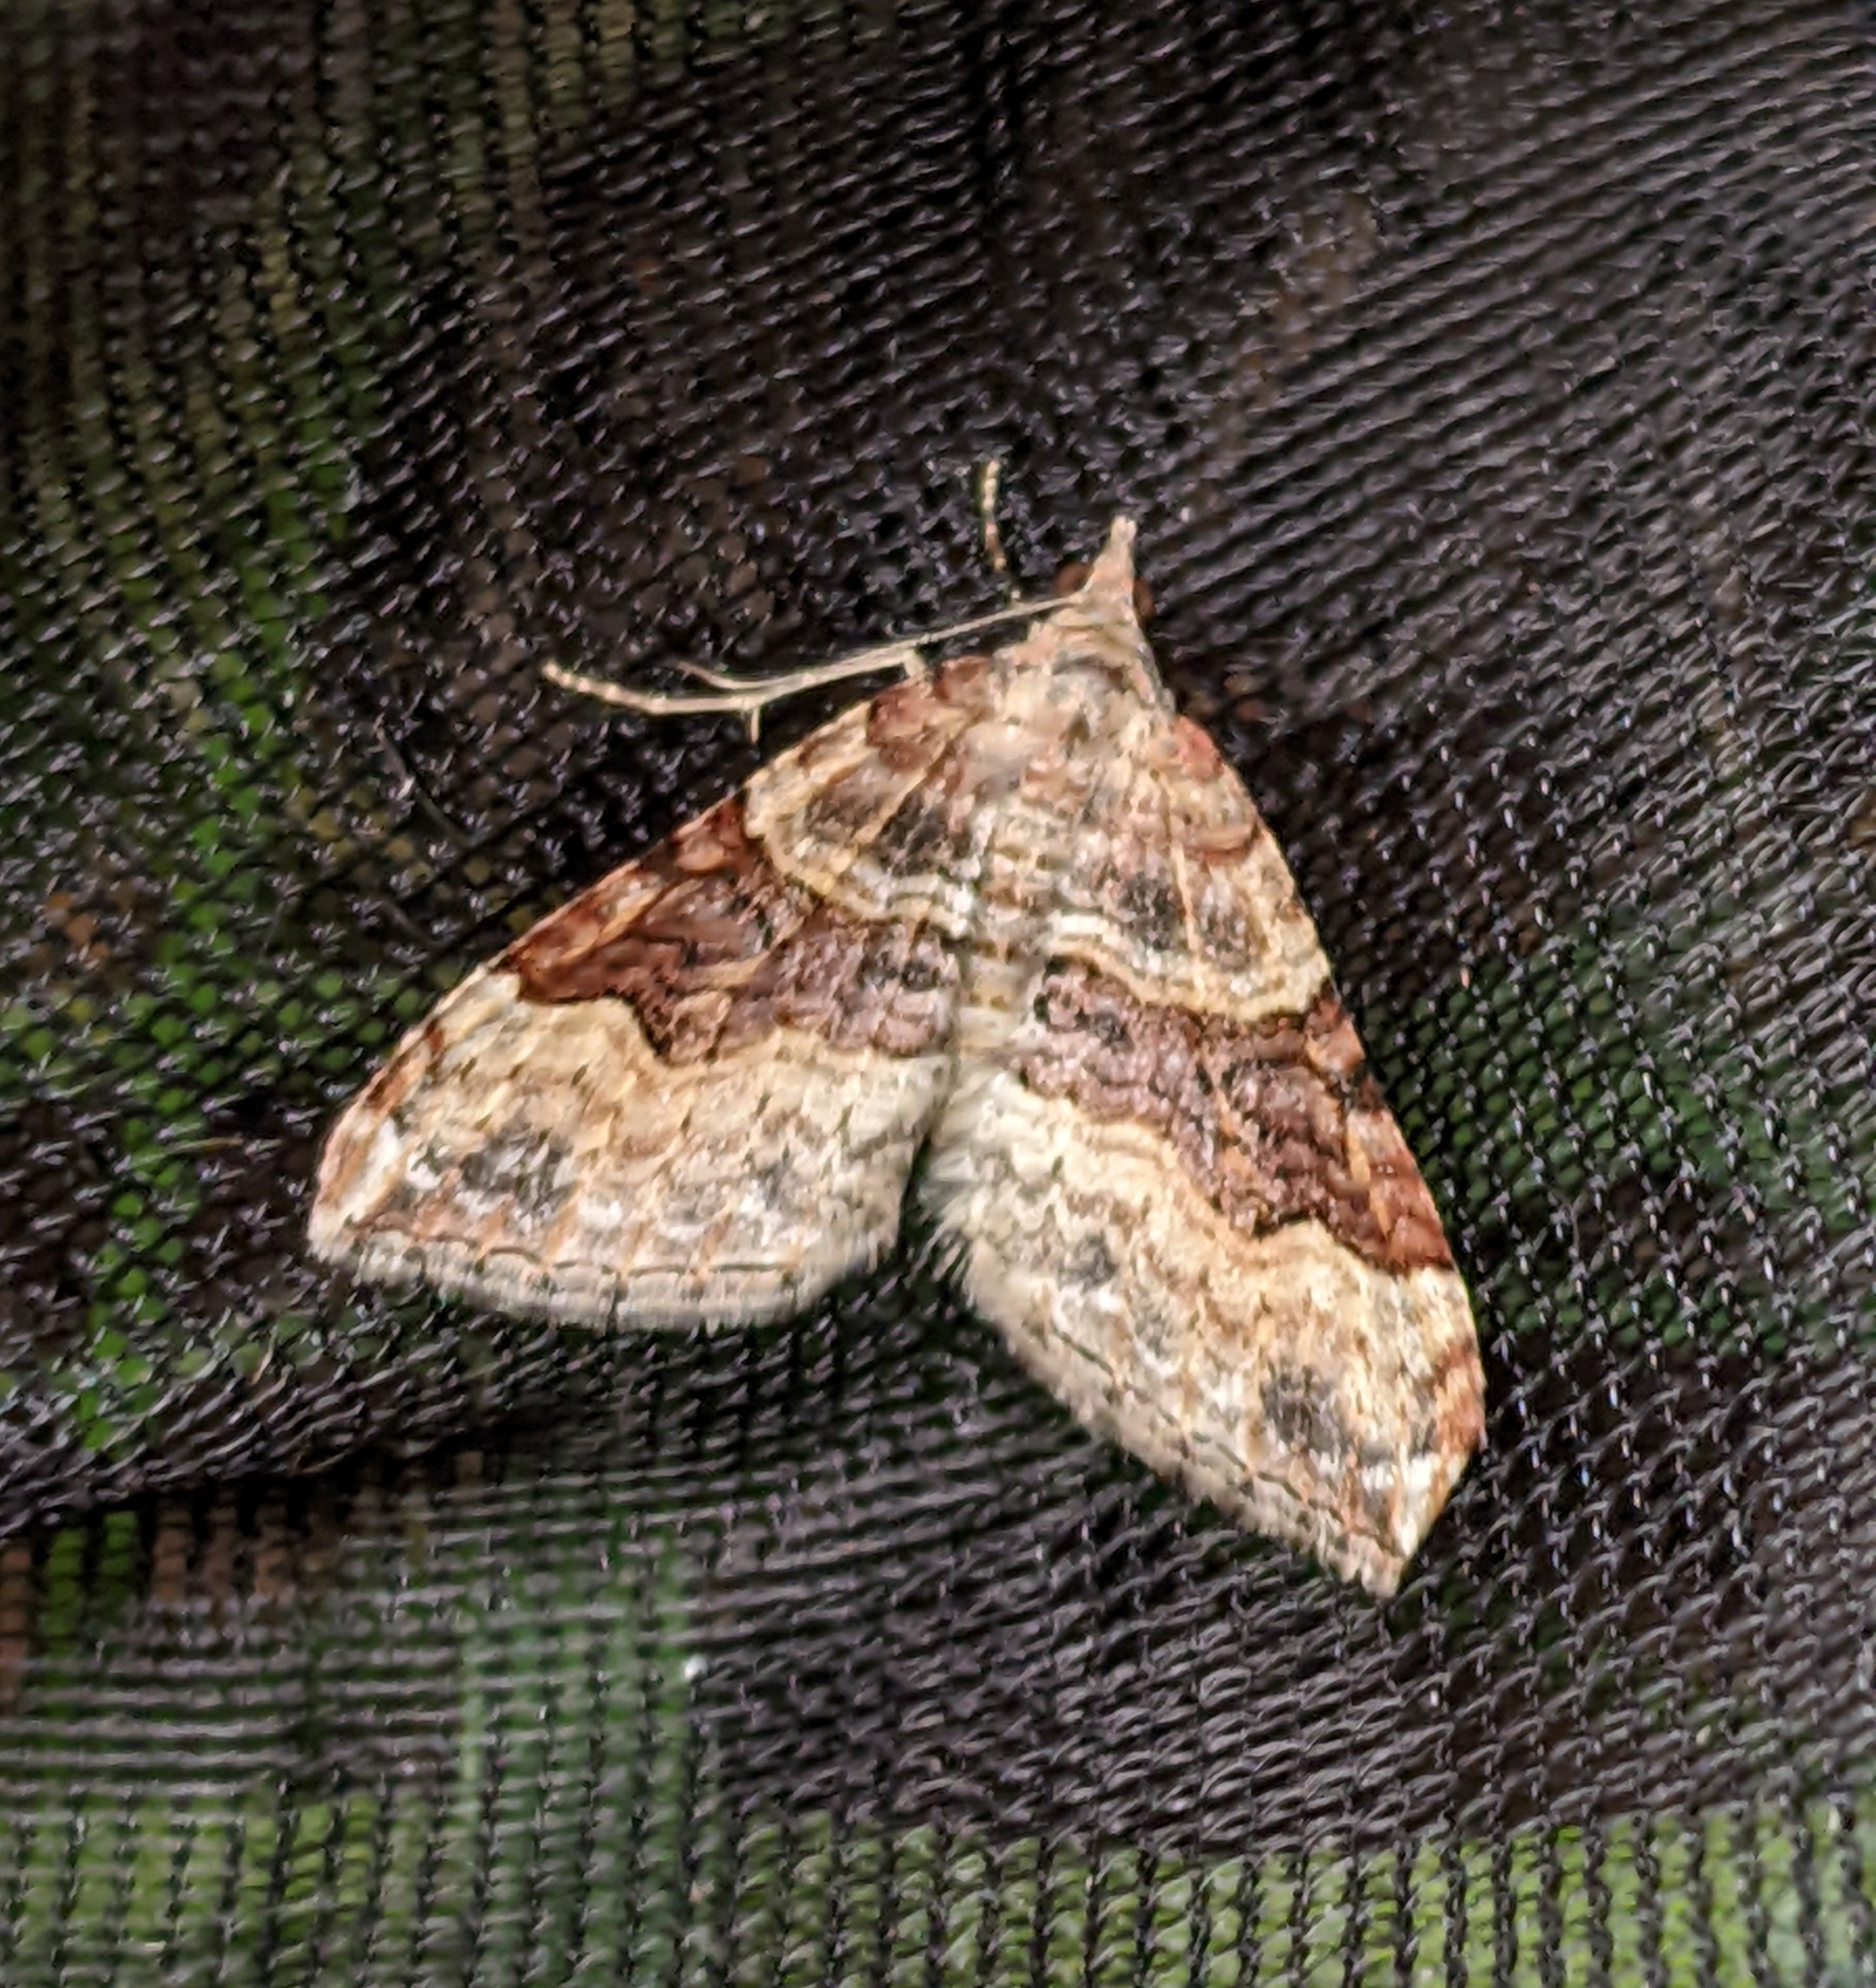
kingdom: Animalia
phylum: Arthropoda
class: Insecta
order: Lepidoptera
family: Geometridae
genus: Xanthorhoe
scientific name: Xanthorhoe defensaria
